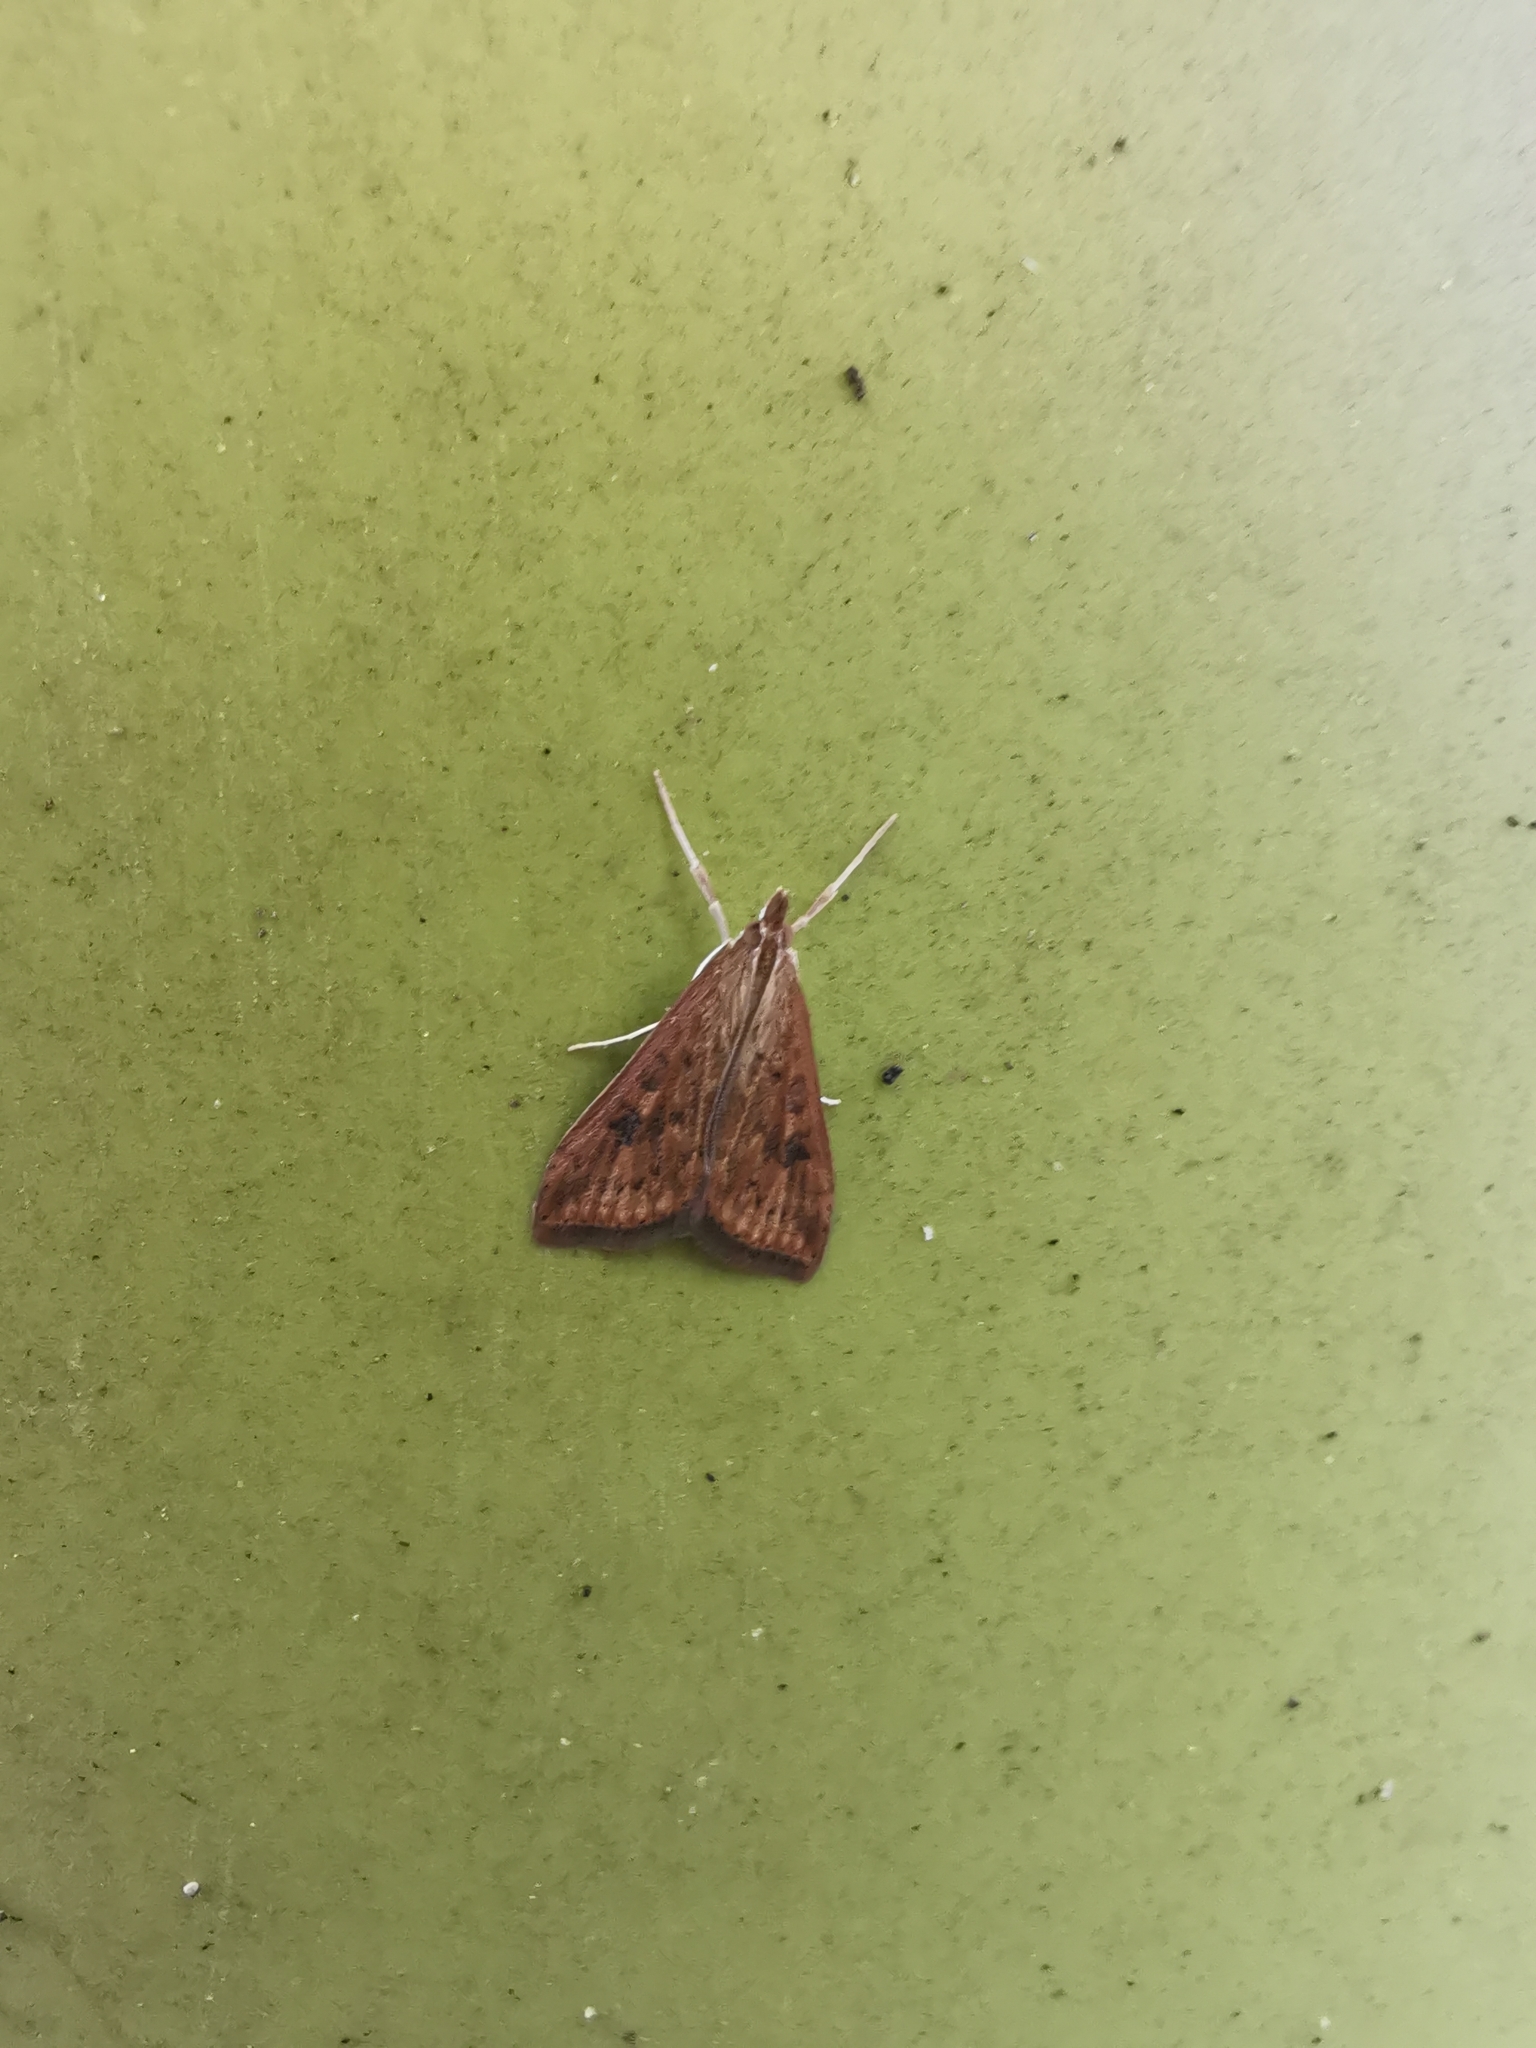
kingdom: Animalia
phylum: Arthropoda
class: Insecta
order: Lepidoptera
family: Crambidae
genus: Udea
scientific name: Udea ferrugalis
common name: Rusty dot
